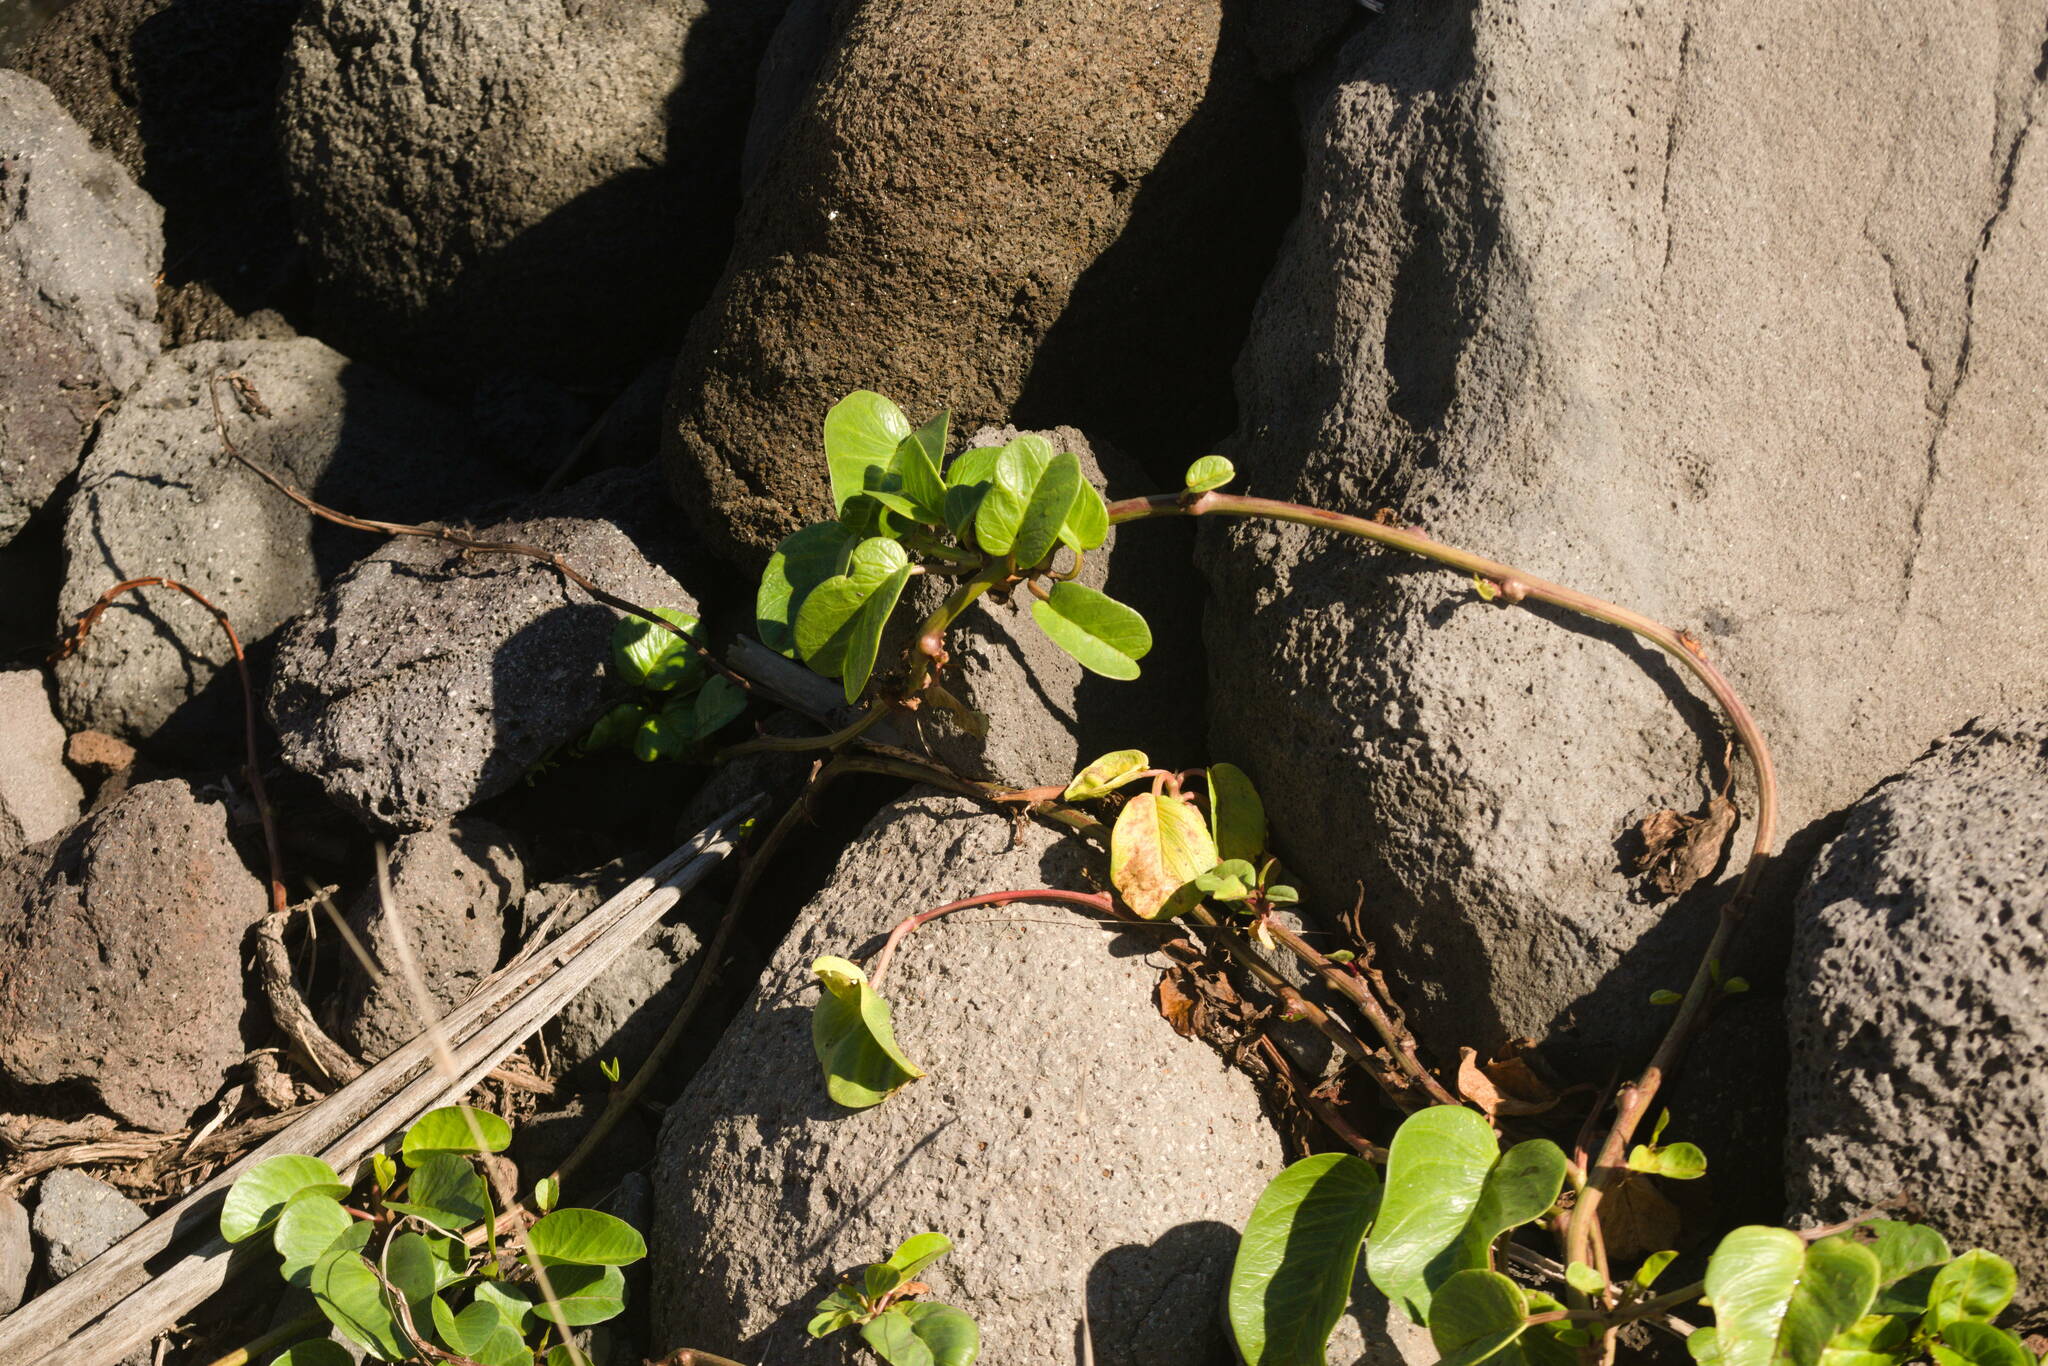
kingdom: Plantae
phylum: Tracheophyta
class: Magnoliopsida
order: Solanales
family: Convolvulaceae
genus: Ipomoea
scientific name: Ipomoea pes-caprae
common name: Beach morning glory
